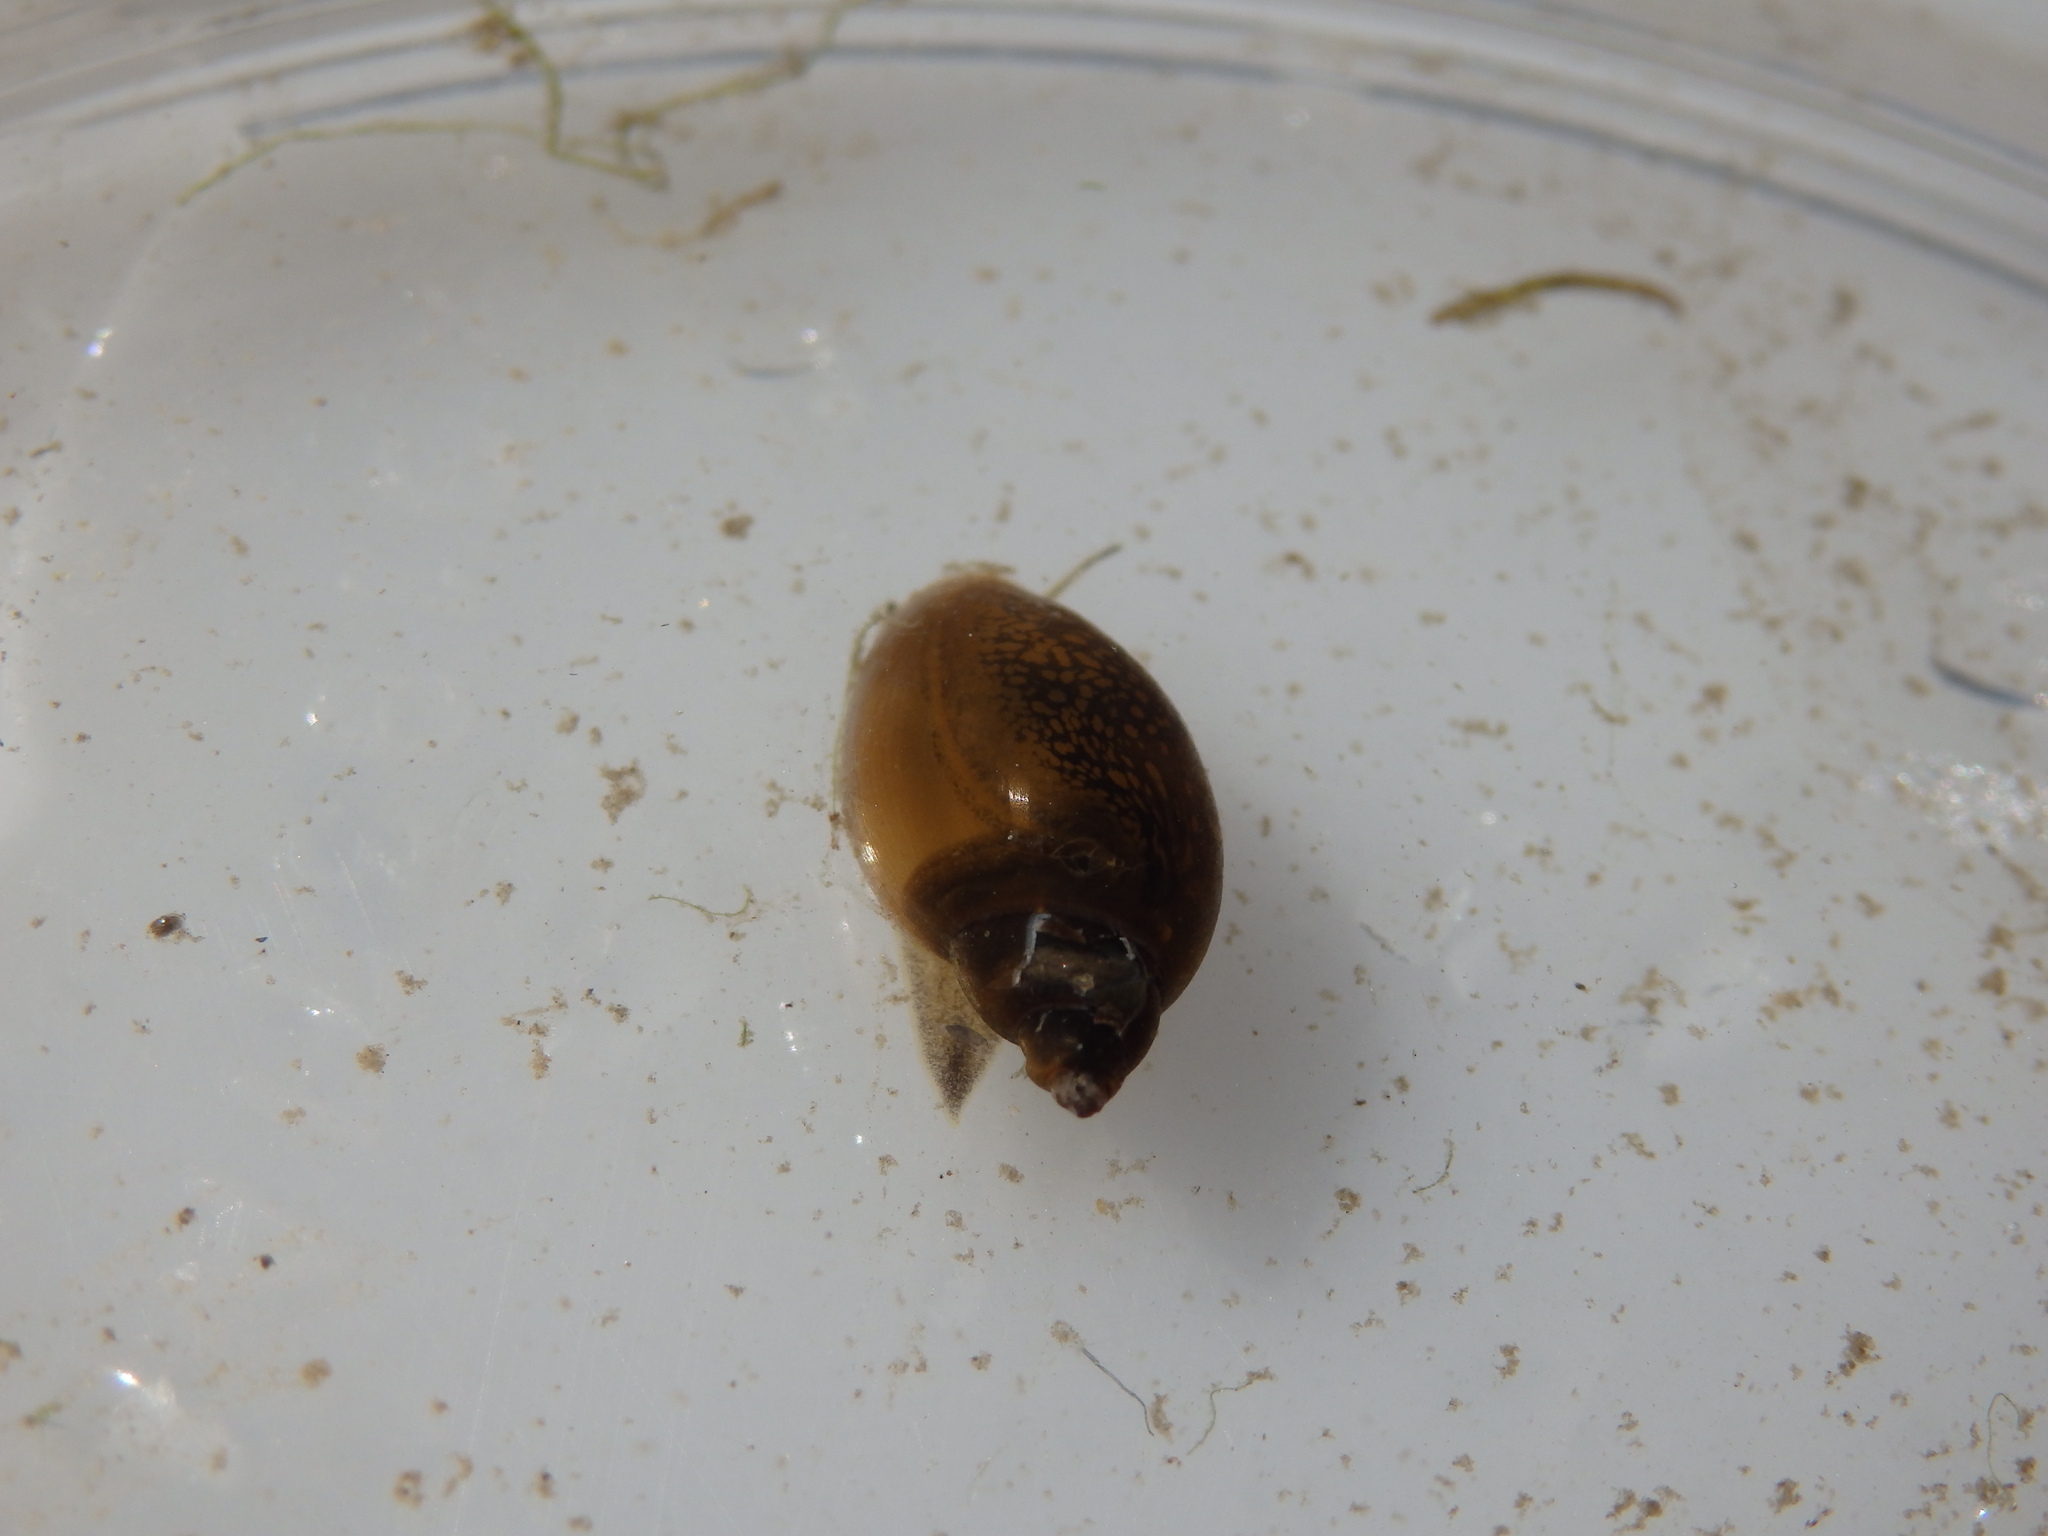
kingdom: Animalia
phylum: Mollusca
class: Gastropoda
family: Physidae
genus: Physella
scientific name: Physella acuta
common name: European physa
